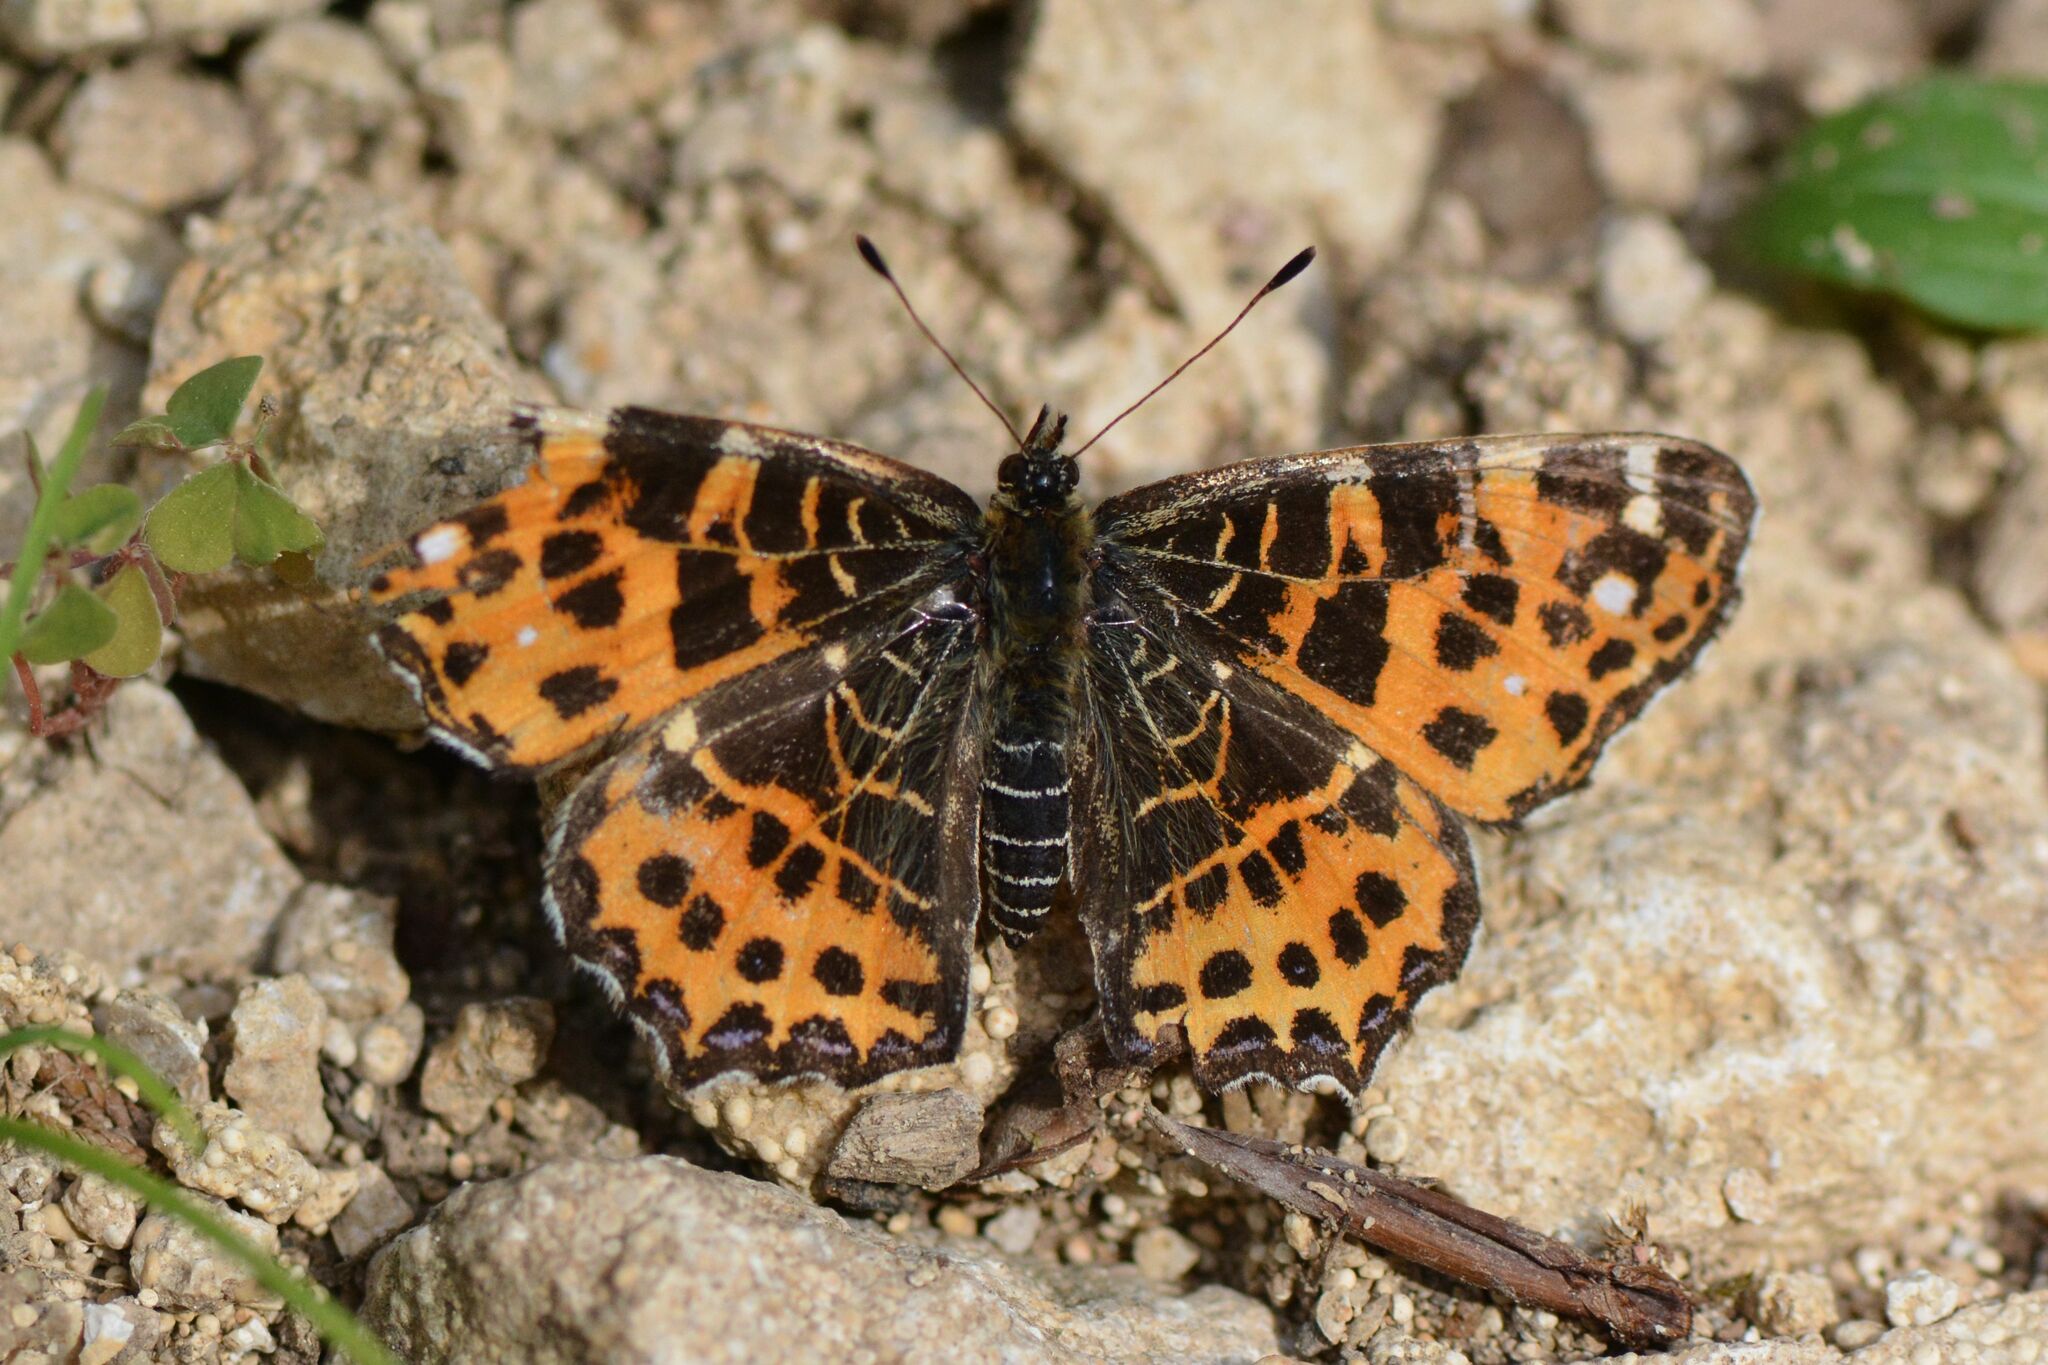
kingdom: Animalia
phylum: Arthropoda
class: Insecta
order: Lepidoptera
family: Nymphalidae
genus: Araschnia
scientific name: Araschnia levana
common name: Map butterfly
